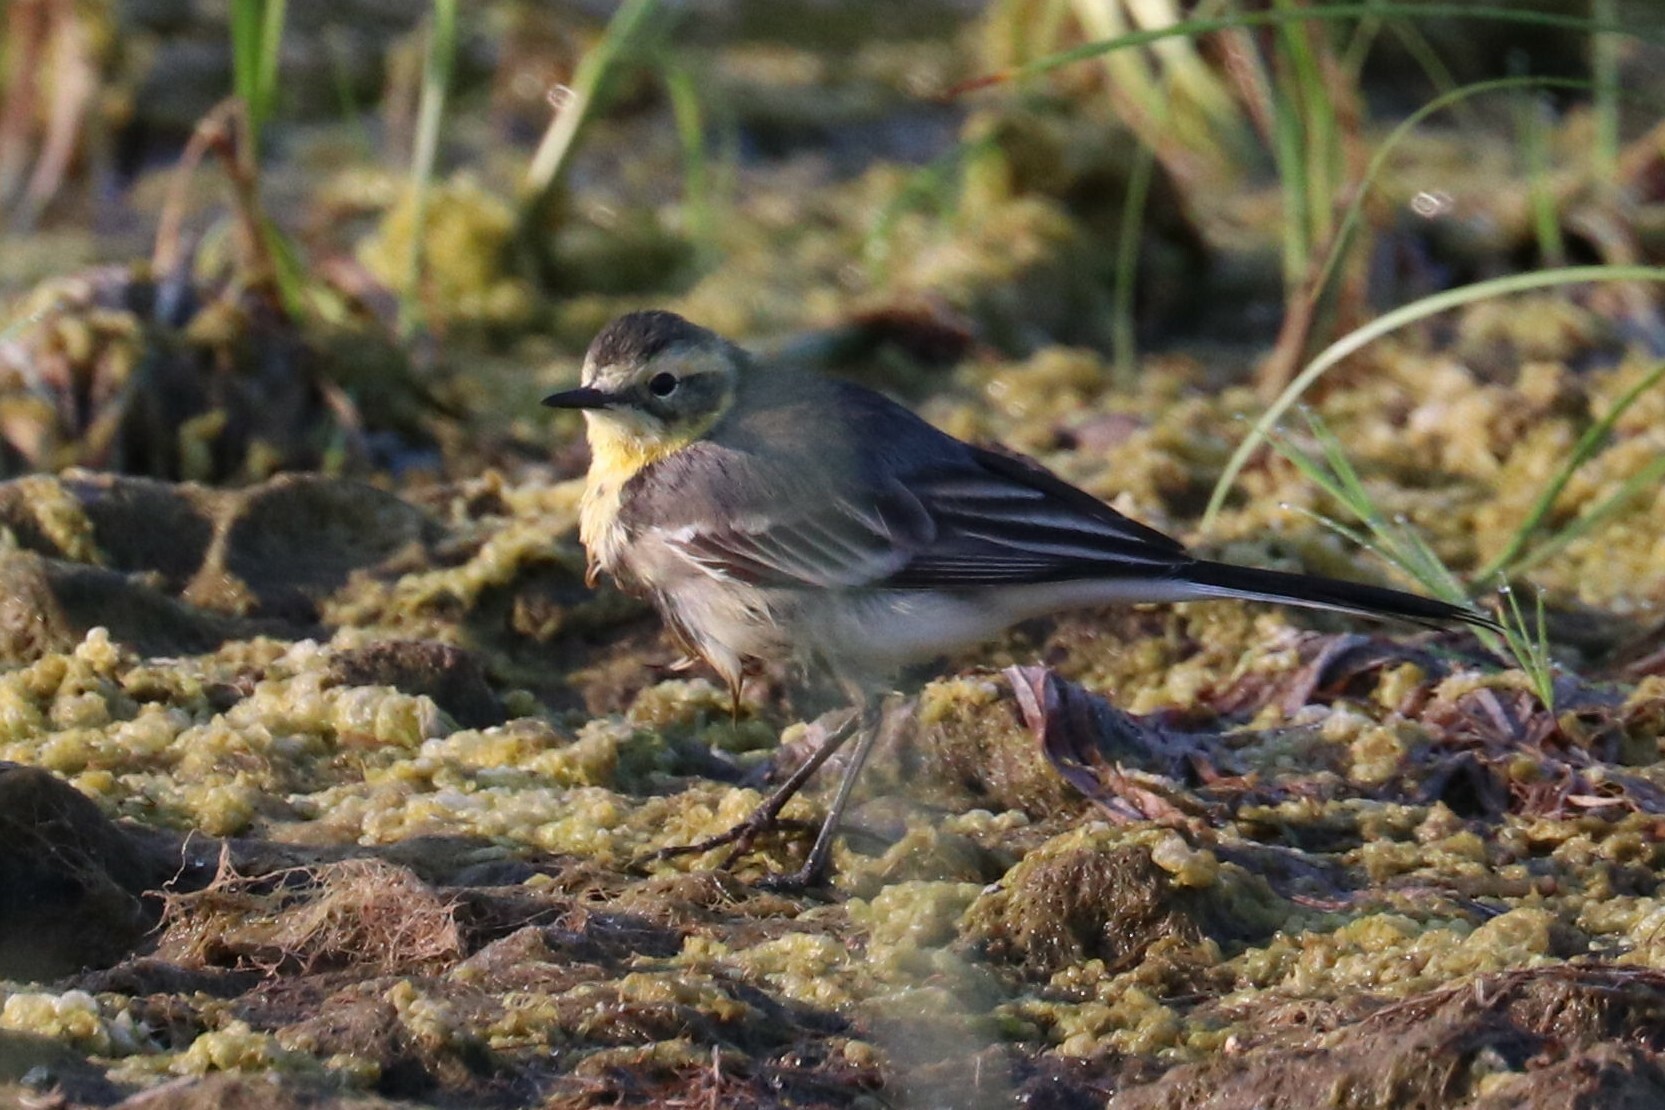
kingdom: Animalia
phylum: Chordata
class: Aves
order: Passeriformes
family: Motacillidae
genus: Motacilla
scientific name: Motacilla citreola
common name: Citrine wagtail
